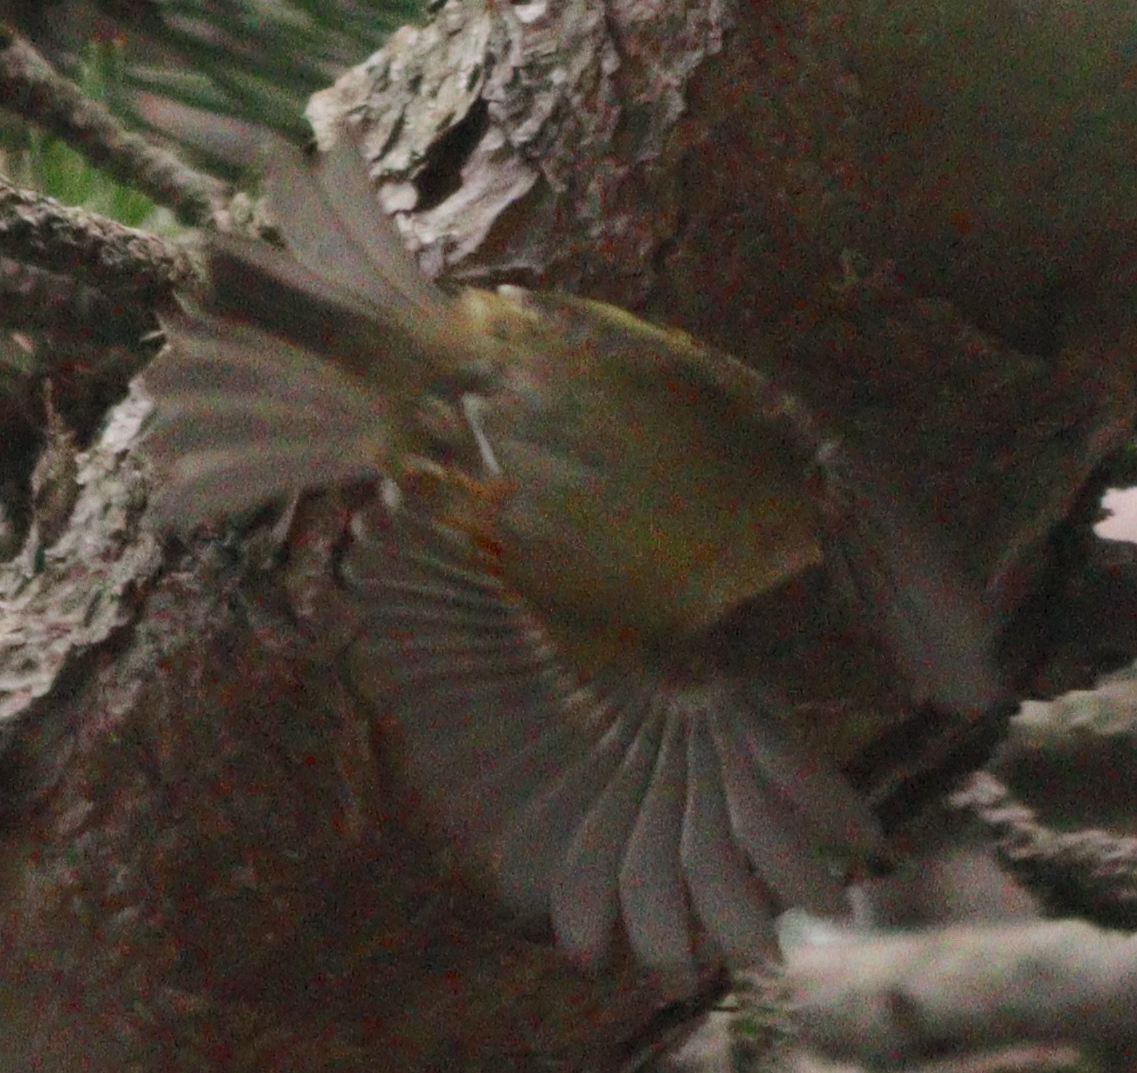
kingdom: Animalia
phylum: Chordata
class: Aves
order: Passeriformes
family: Regulidae
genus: Regulus
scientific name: Regulus regulus
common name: Goldcrest
